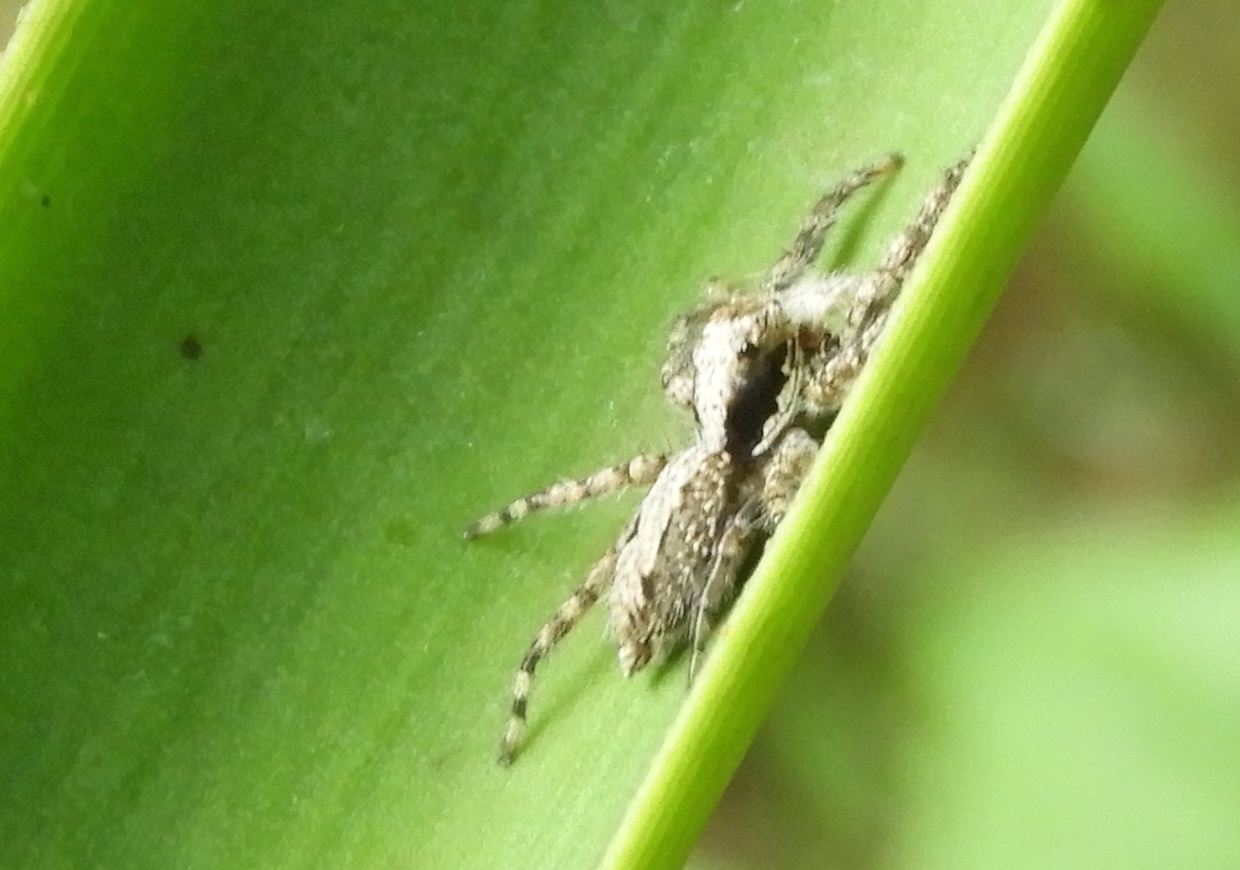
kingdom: Animalia
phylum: Arthropoda
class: Arachnida
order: Araneae
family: Salticidae
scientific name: Salticidae
